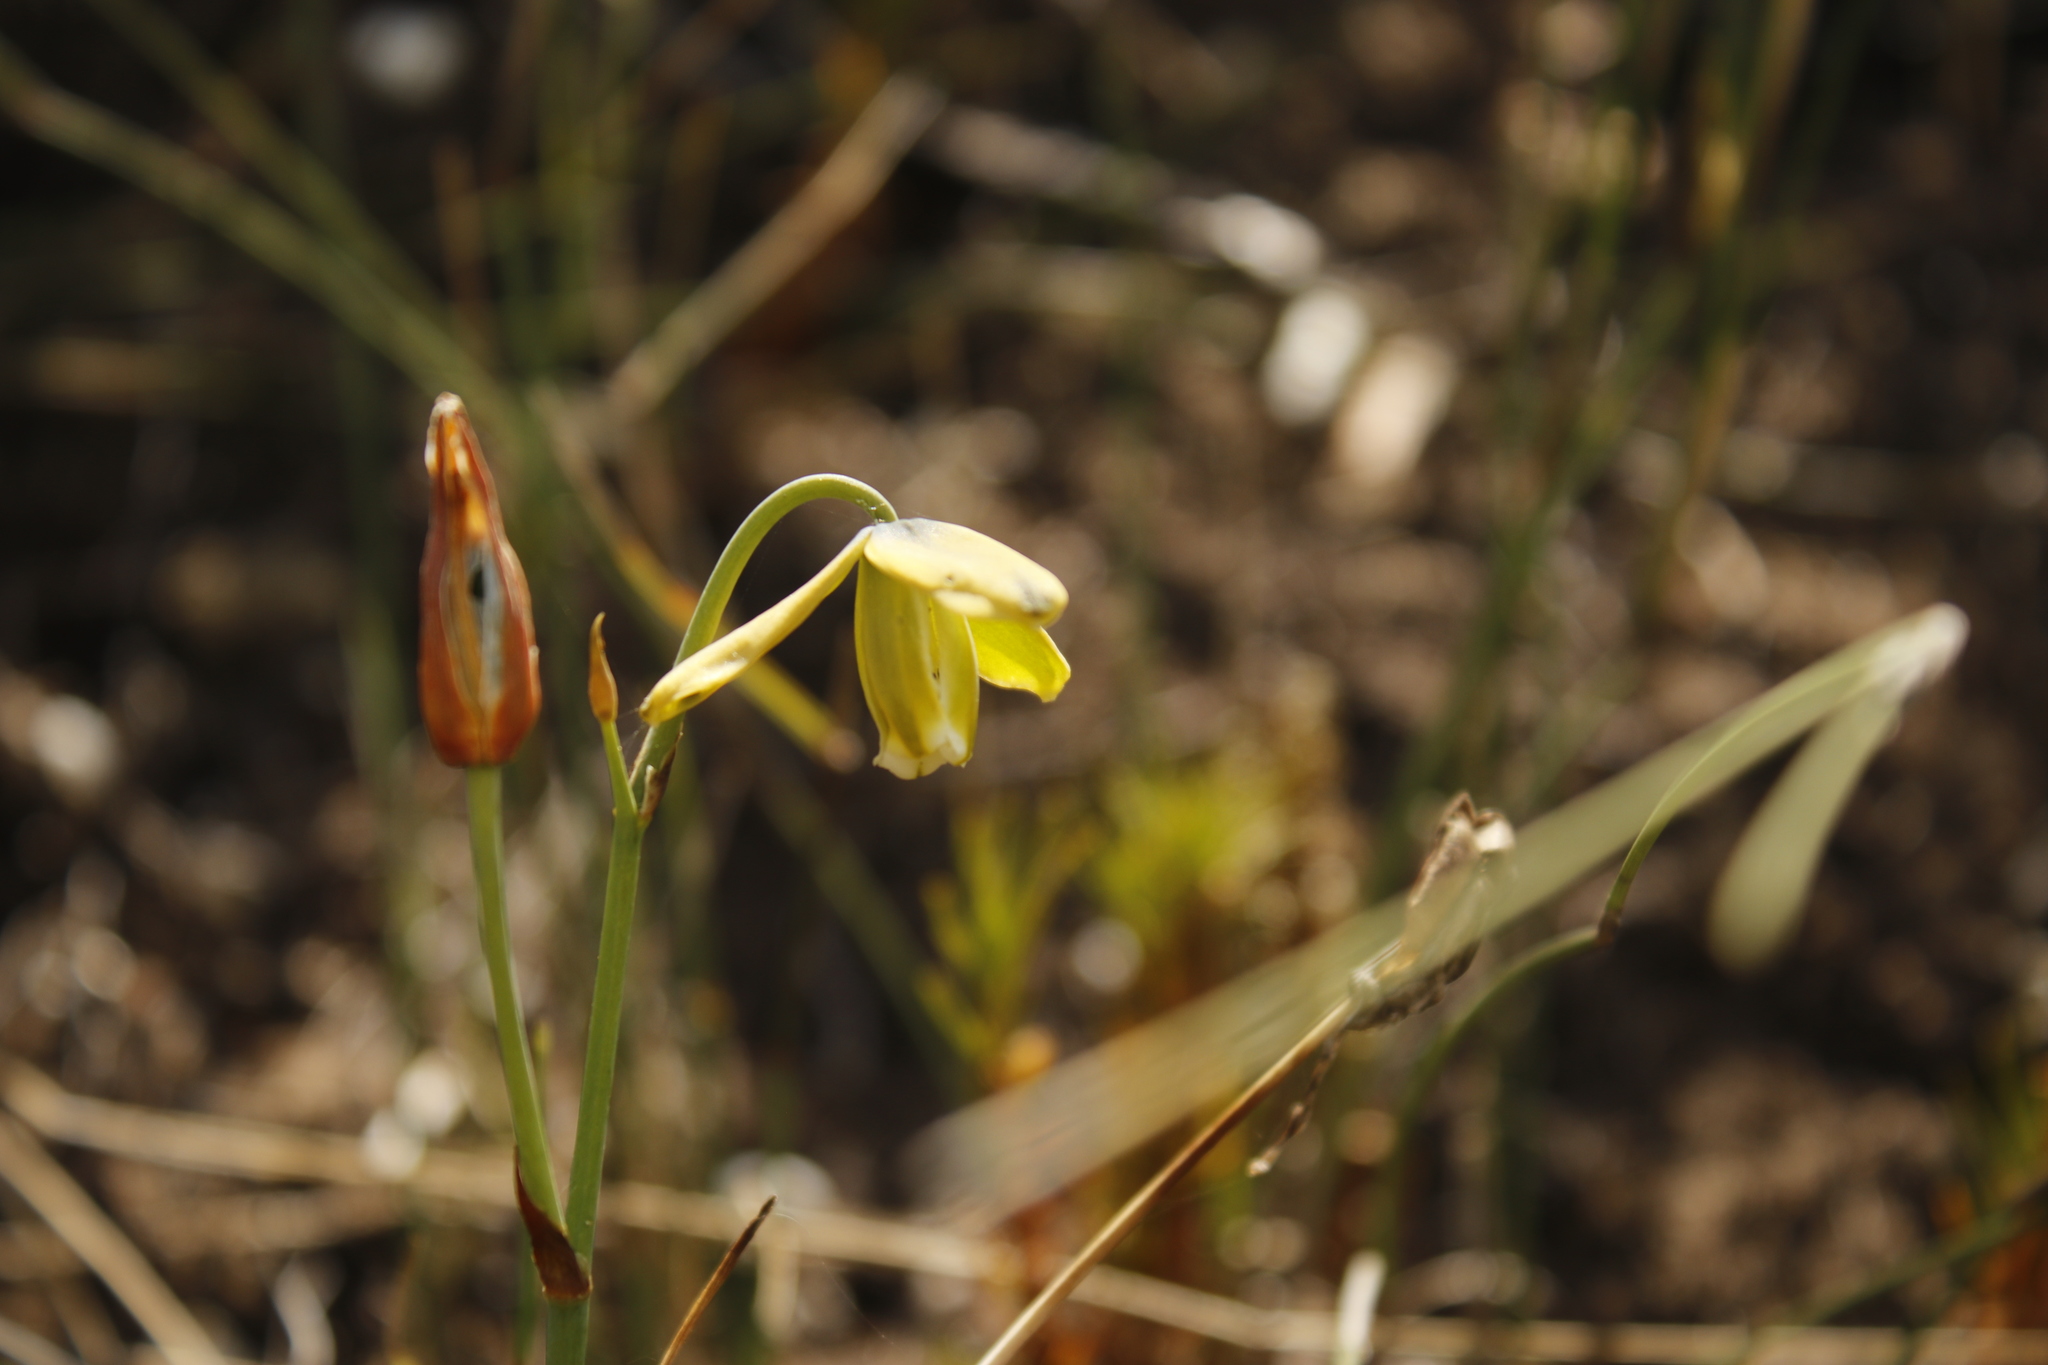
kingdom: Plantae
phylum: Tracheophyta
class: Liliopsida
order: Asparagales
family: Asparagaceae
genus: Albuca
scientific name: Albuca cooperi
